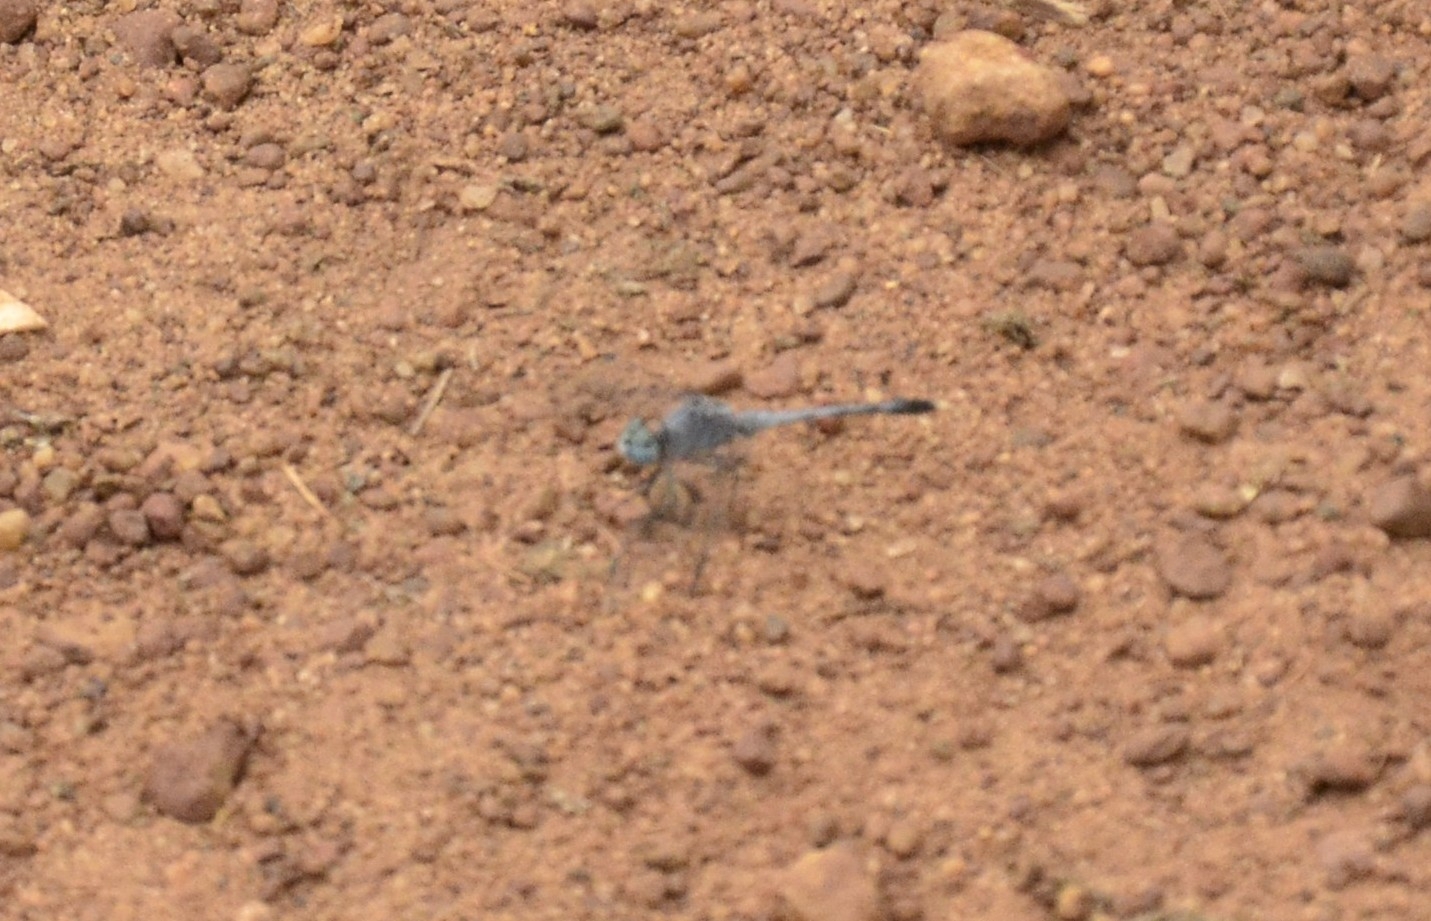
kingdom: Animalia
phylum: Arthropoda
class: Insecta
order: Odonata
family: Libellulidae
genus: Diplacodes
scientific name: Diplacodes trivialis
